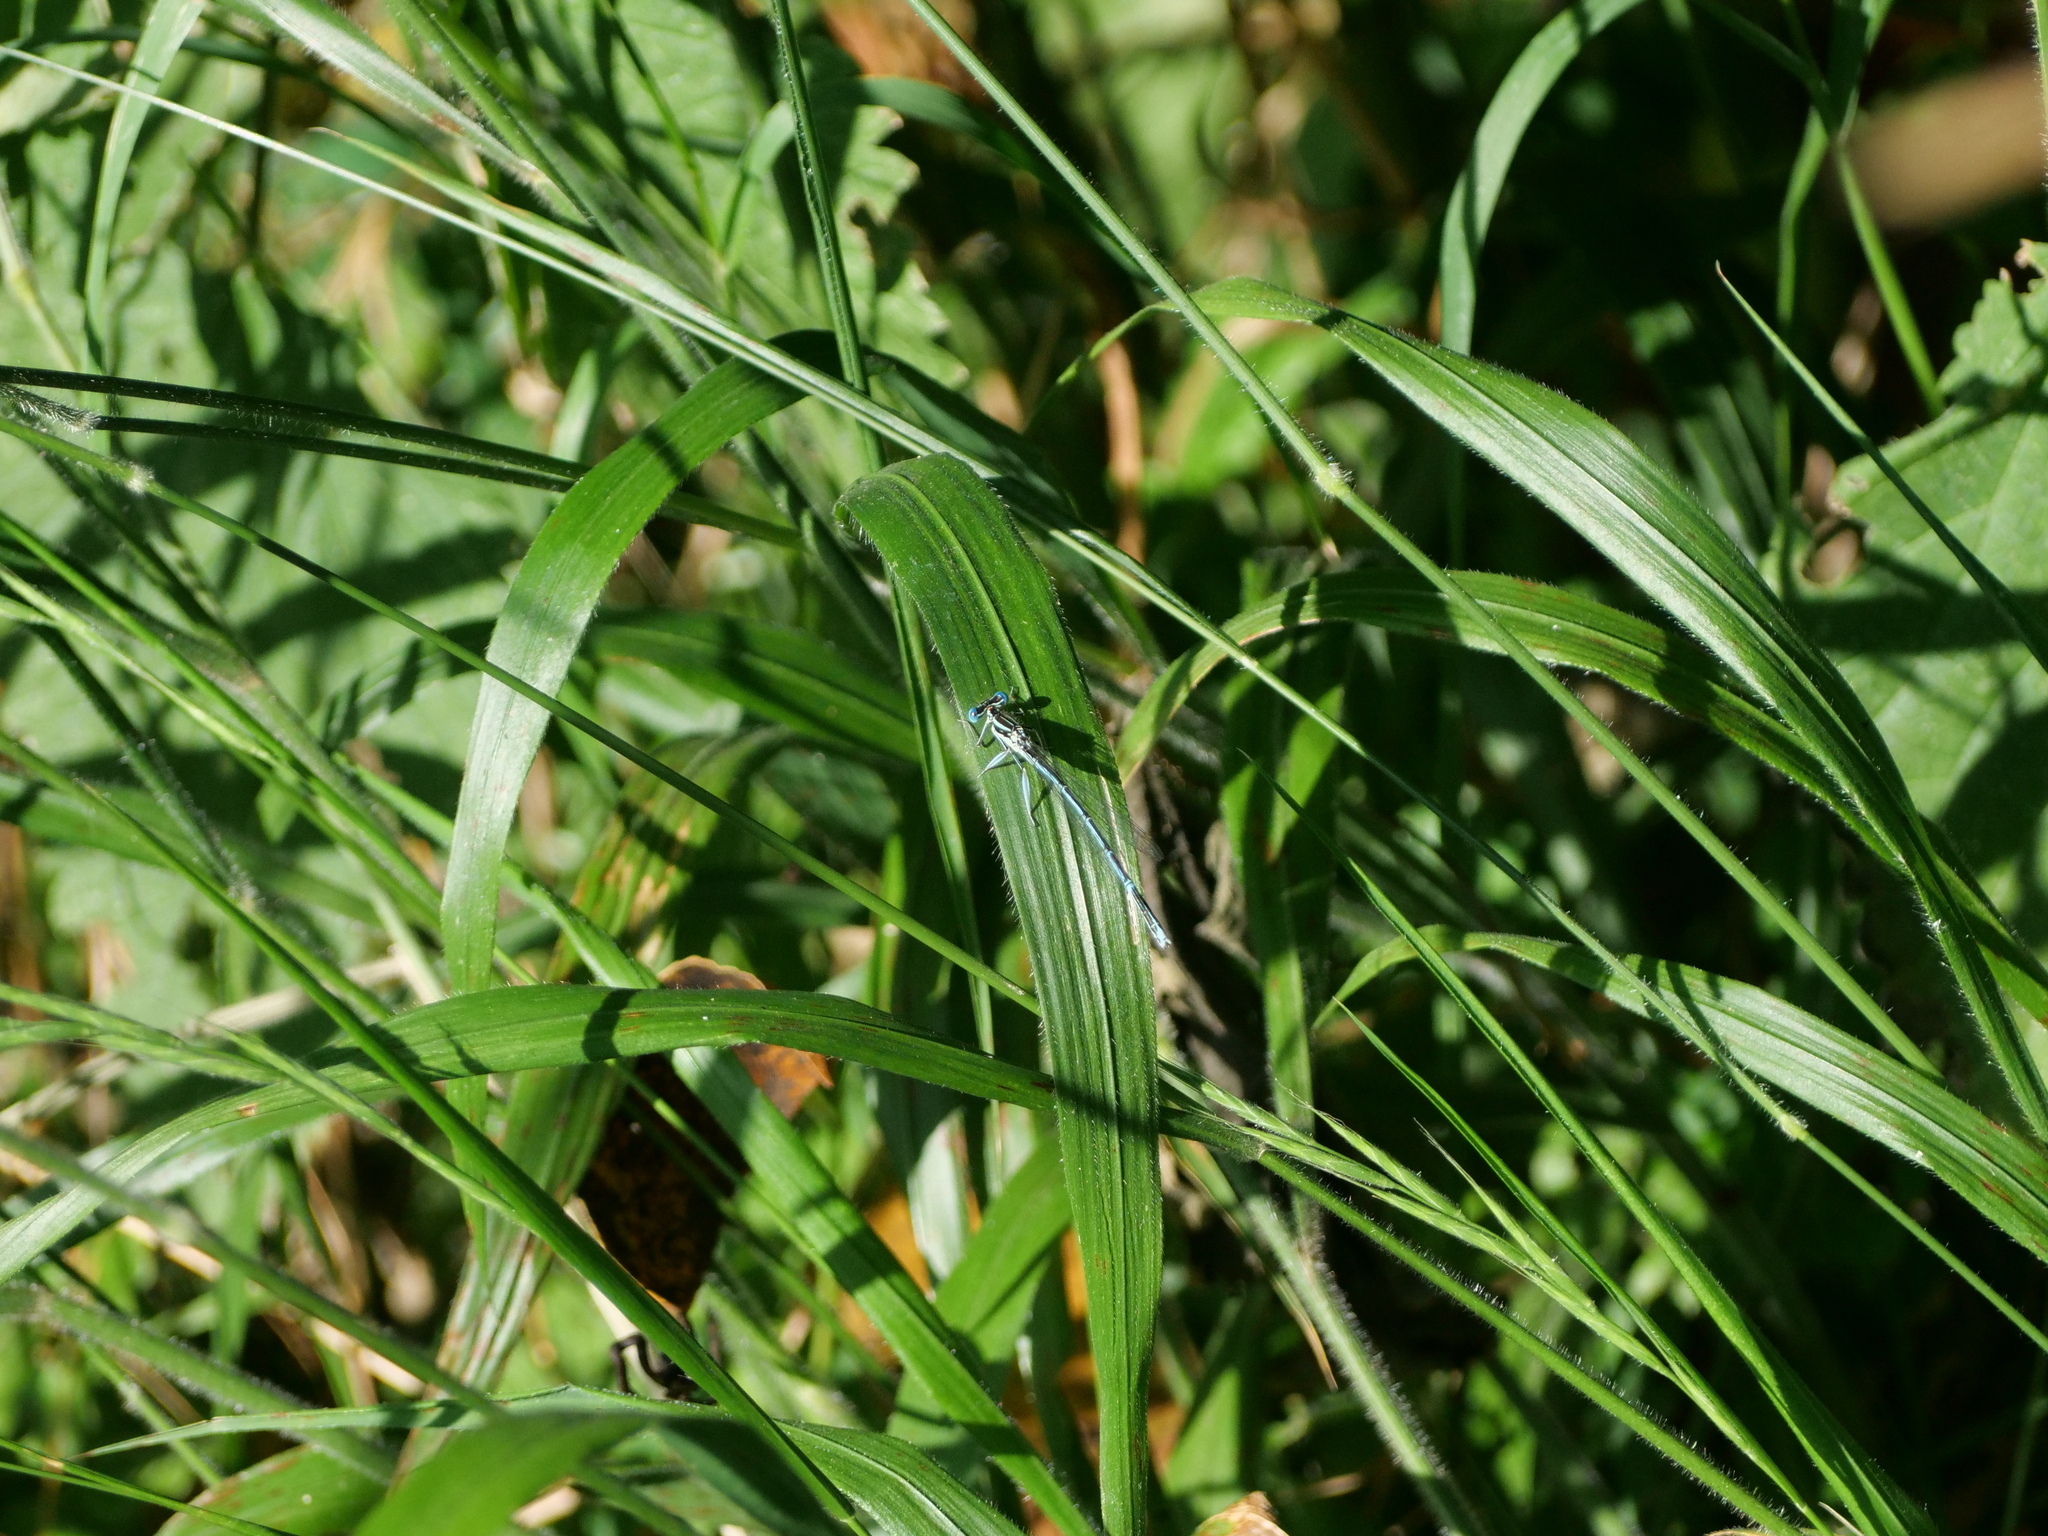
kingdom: Animalia
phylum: Arthropoda
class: Insecta
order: Odonata
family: Platycnemididae
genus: Platycnemis
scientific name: Platycnemis pennipes
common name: White-legged damselfly
